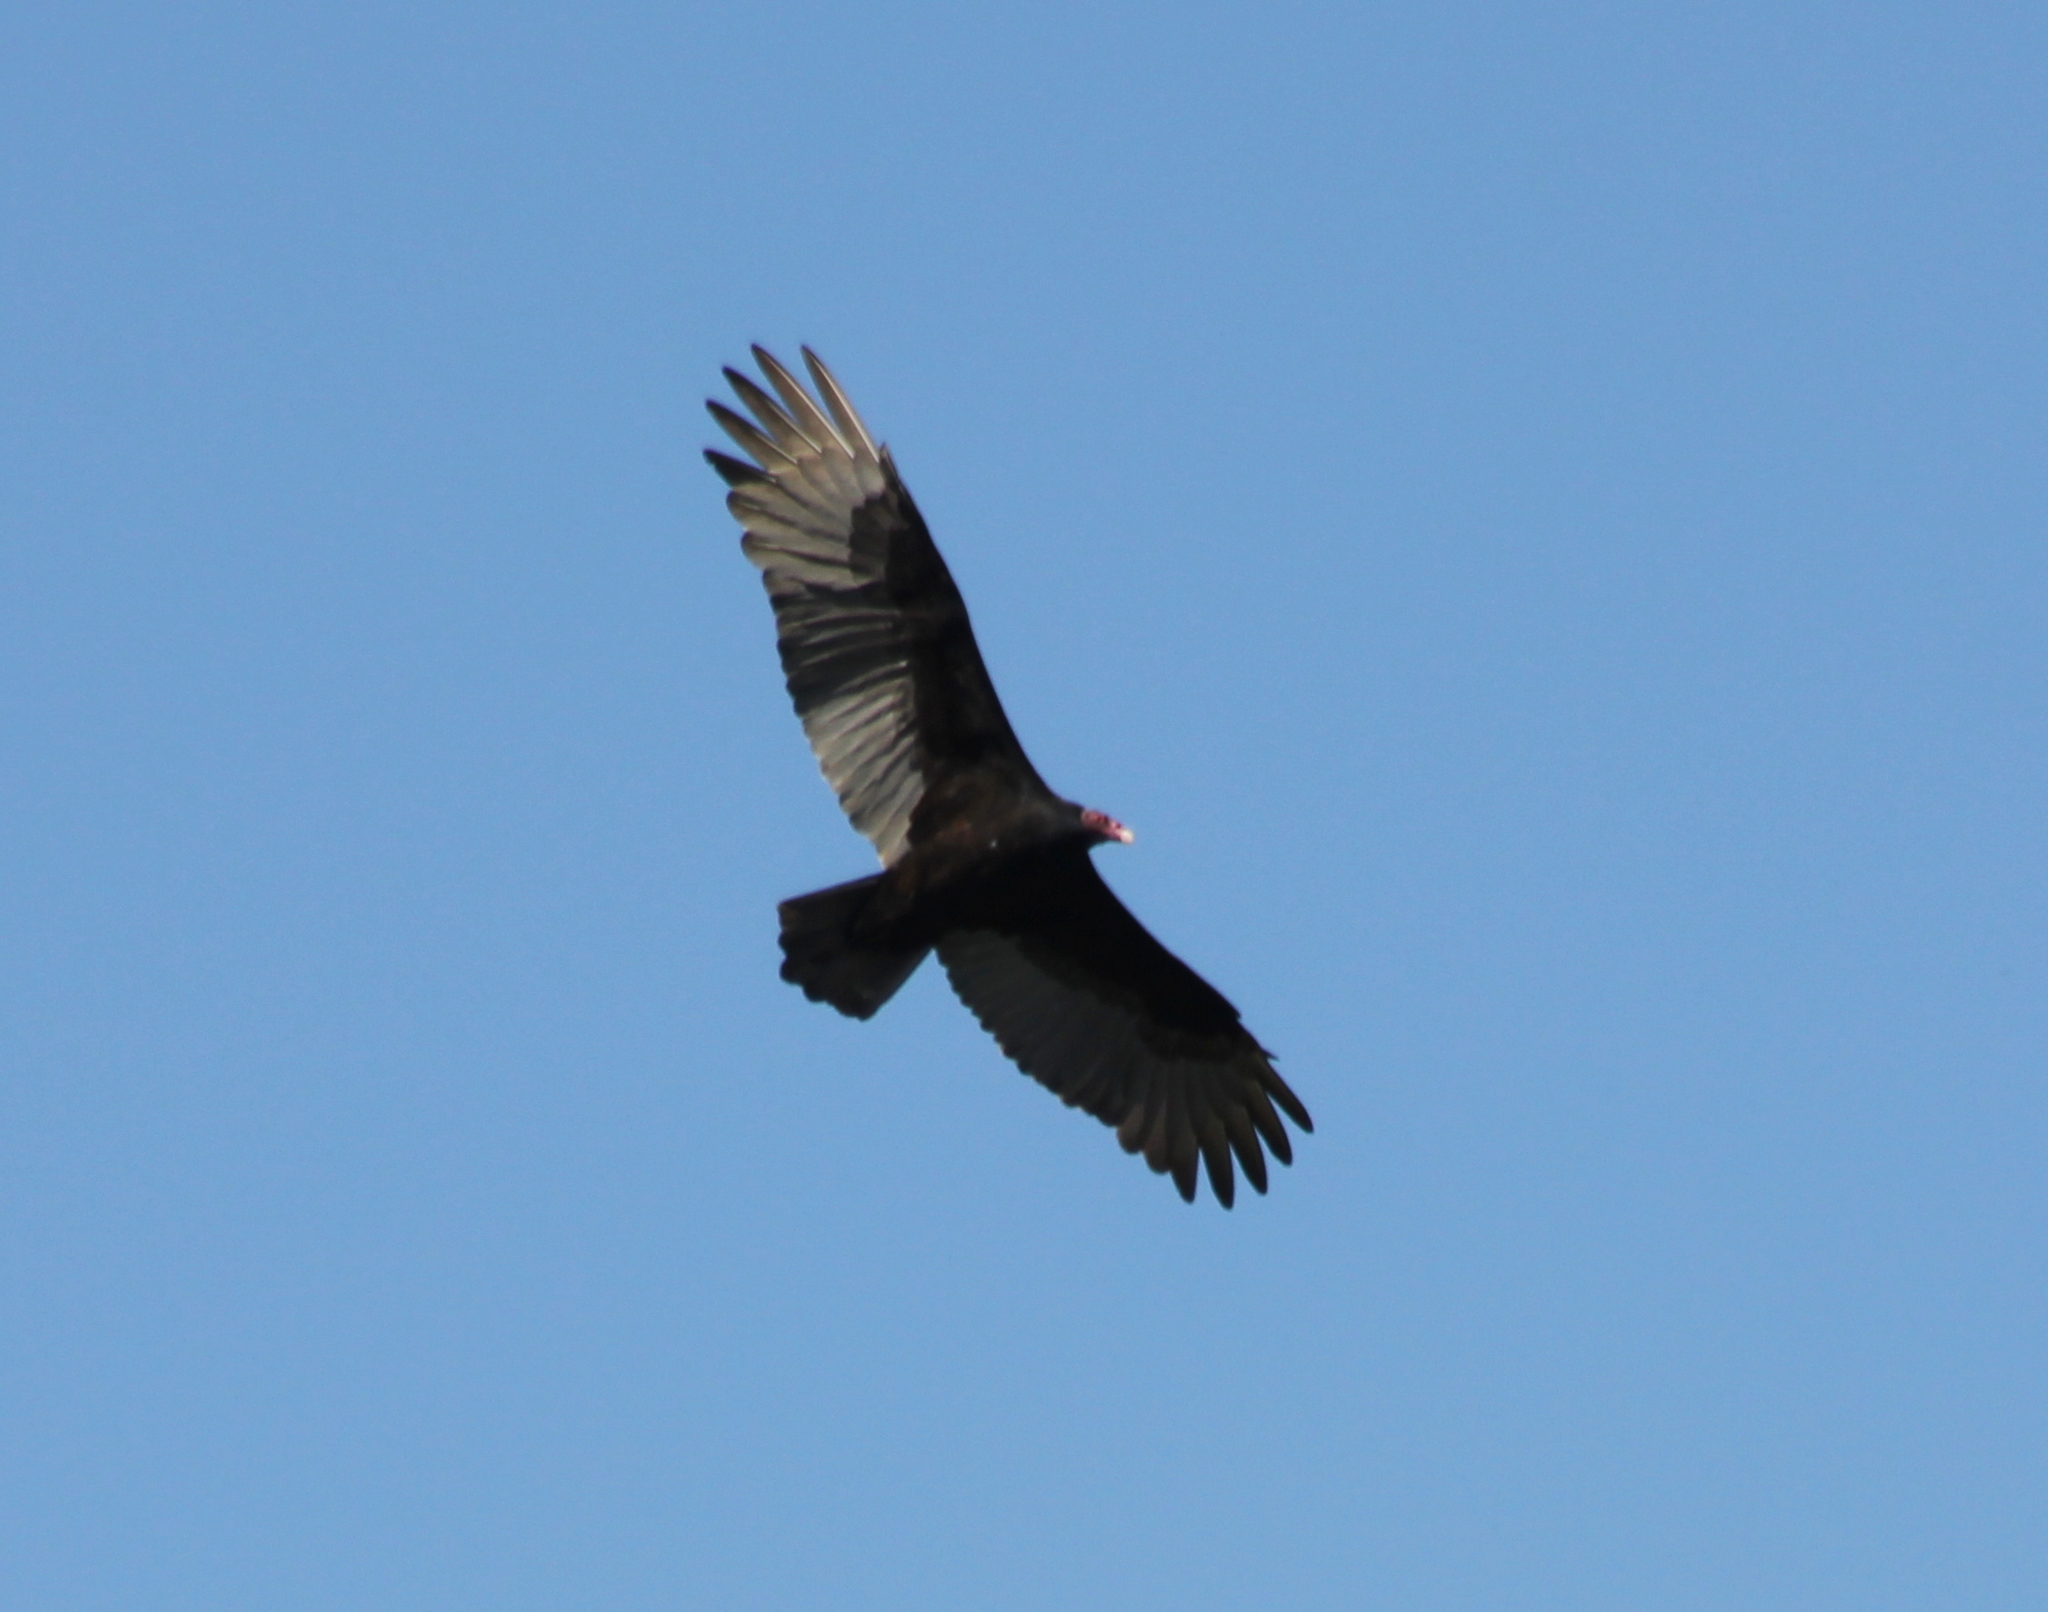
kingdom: Animalia
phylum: Chordata
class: Aves
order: Accipitriformes
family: Cathartidae
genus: Cathartes
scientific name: Cathartes aura
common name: Turkey vulture
